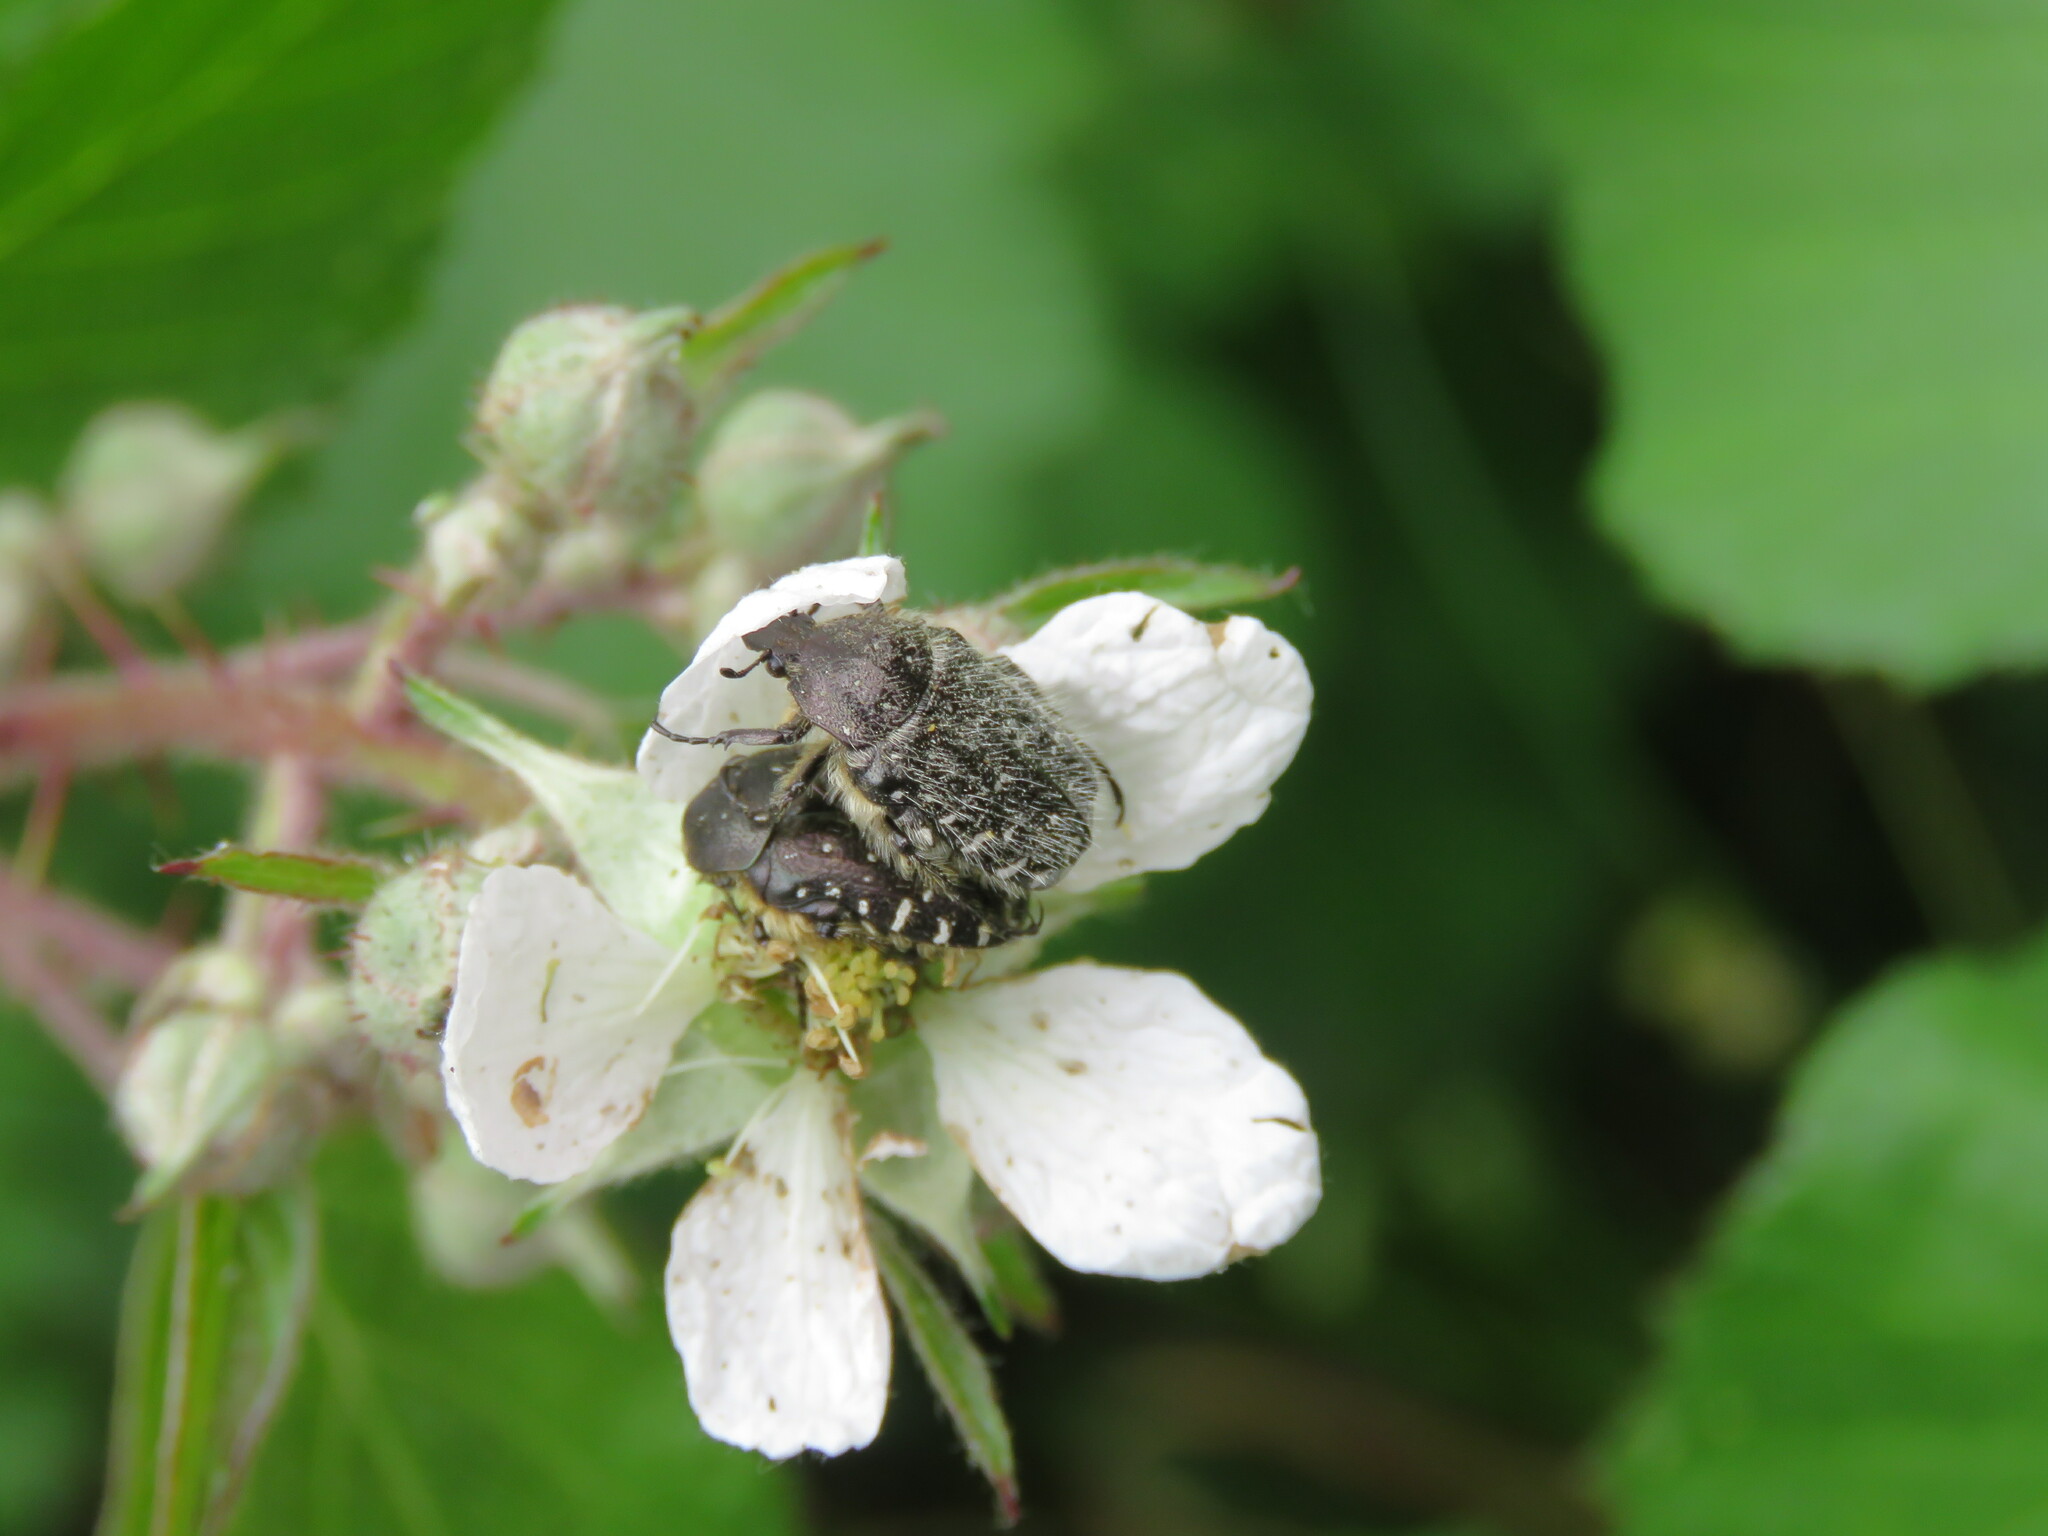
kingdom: Animalia
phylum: Arthropoda
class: Insecta
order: Coleoptera
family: Scarabaeidae
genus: Oxythyrea
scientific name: Oxythyrea funesta
